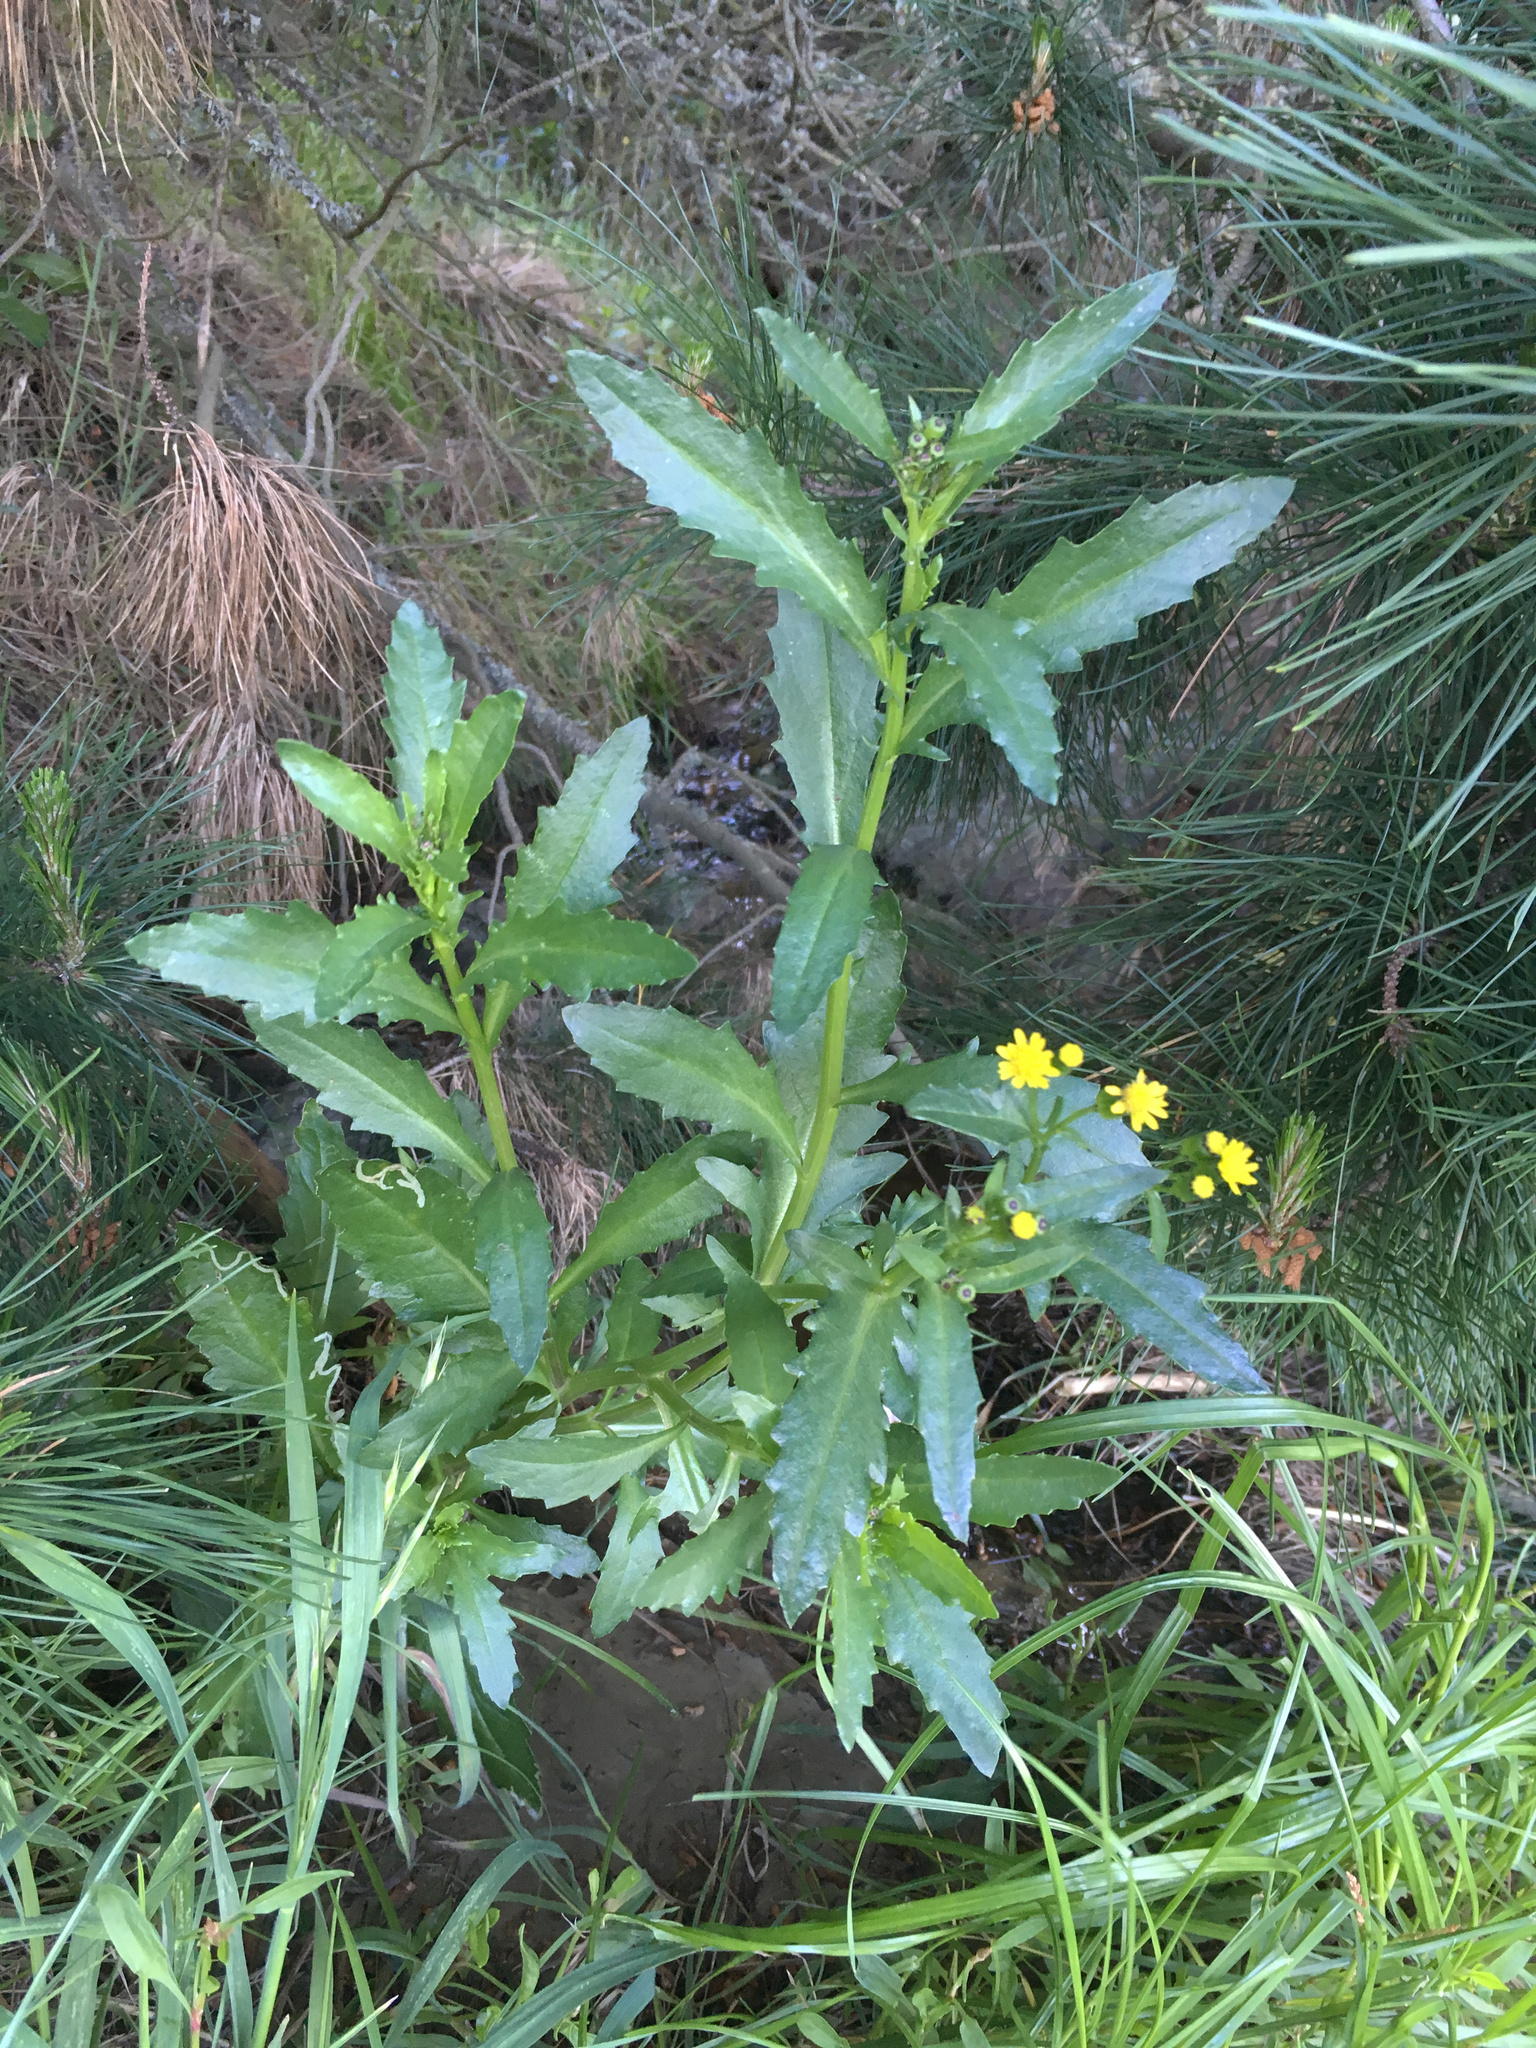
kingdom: Plantae
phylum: Tracheophyta
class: Magnoliopsida
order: Asterales
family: Asteraceae
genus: Senecio
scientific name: Senecio matatini
